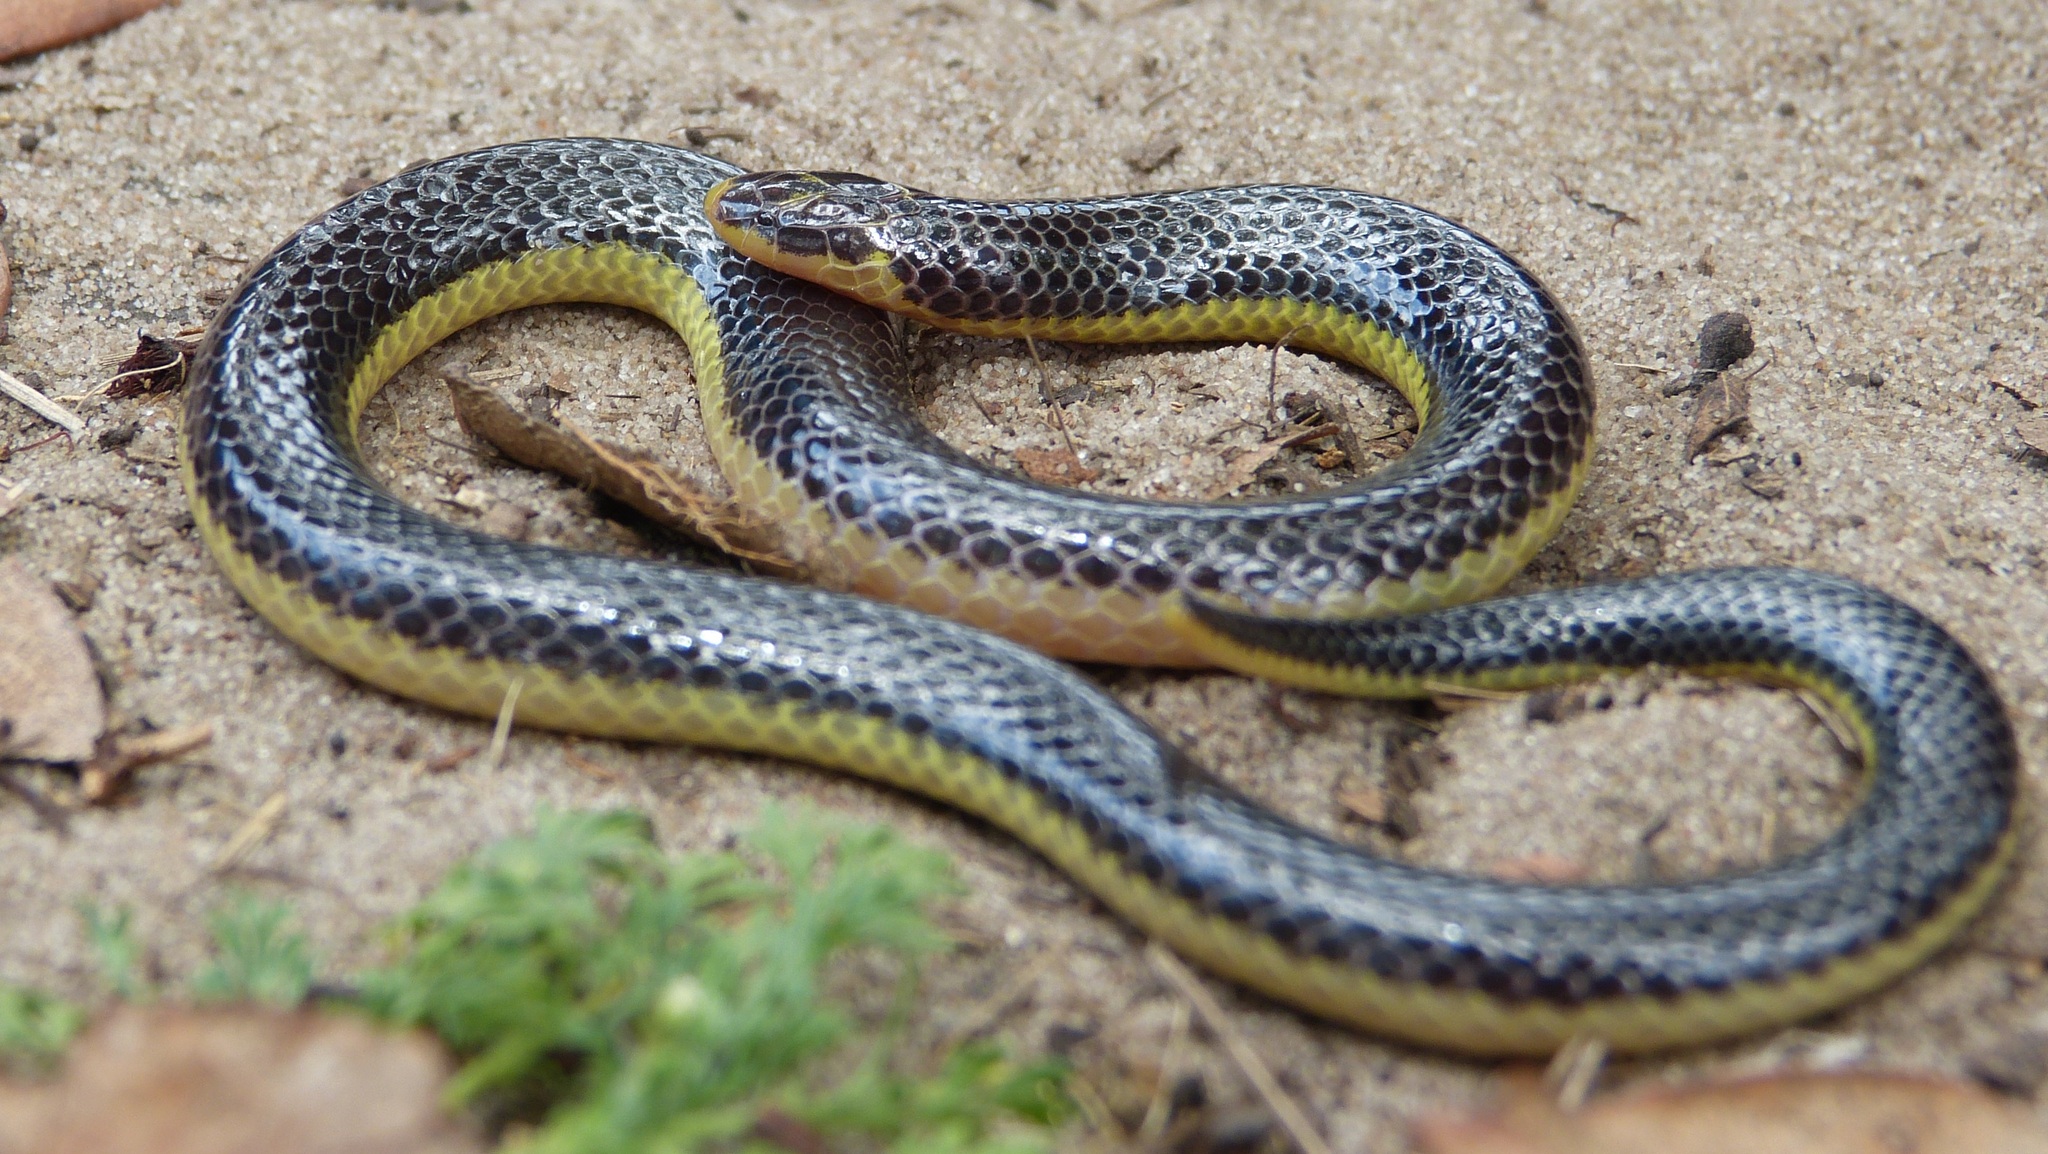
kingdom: Animalia
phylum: Chordata
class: Squamata
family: Atractaspididae
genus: Amblyodipsas
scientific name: Amblyodipsas microphthalma
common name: Eastern purple-glossed snake
